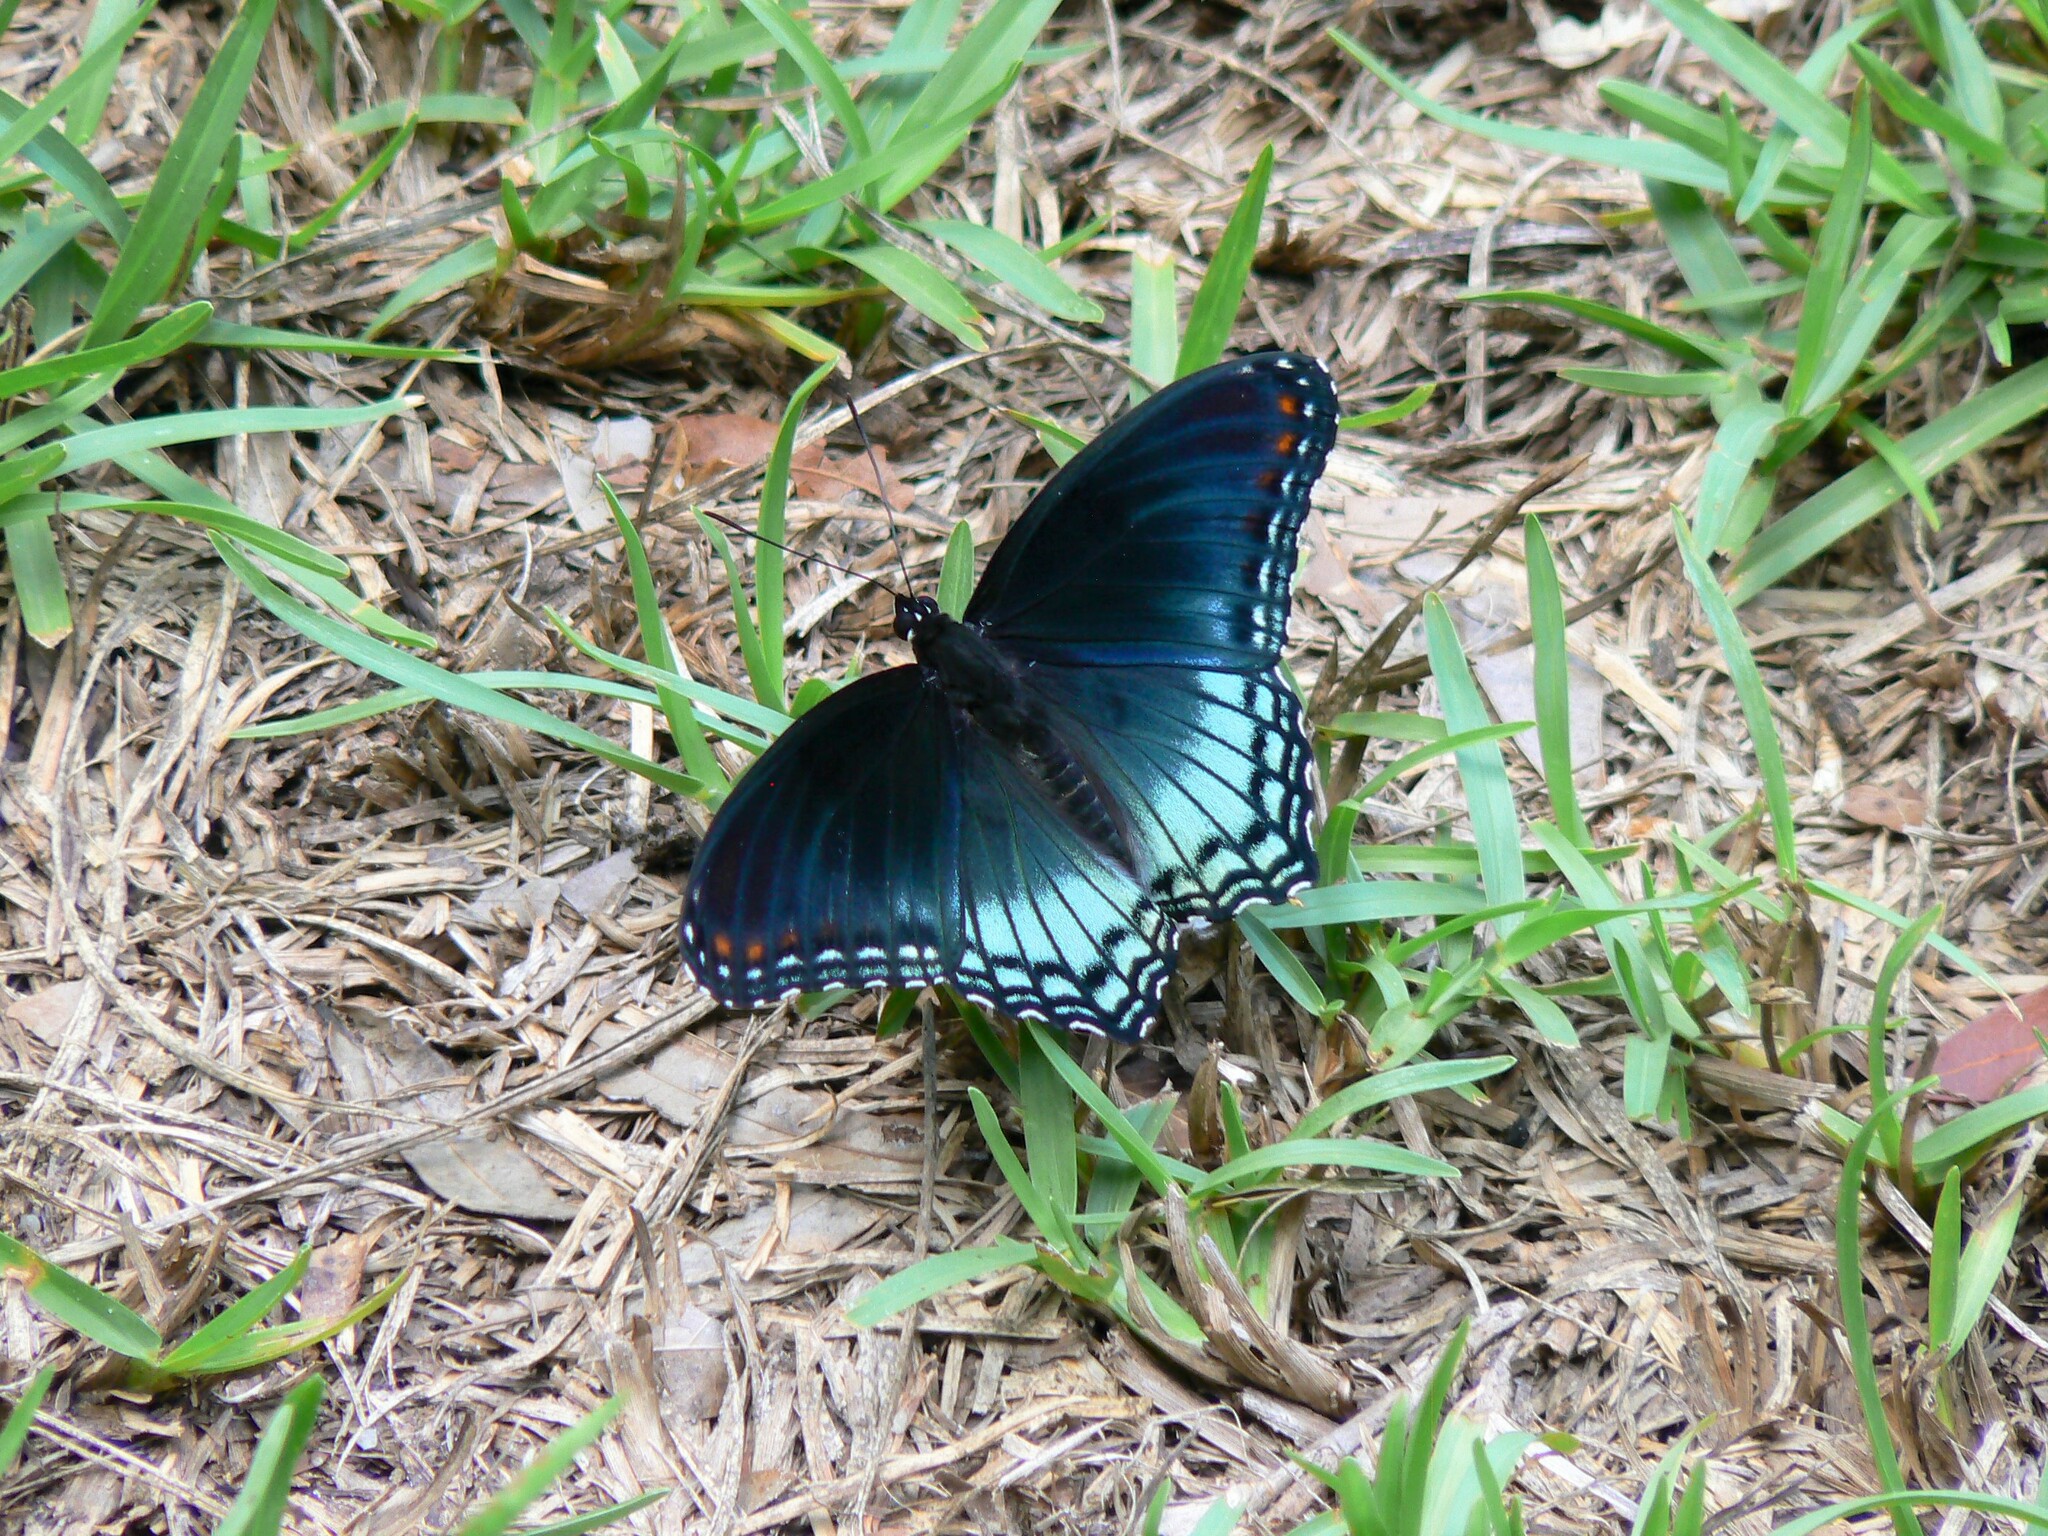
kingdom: Animalia
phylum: Arthropoda
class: Insecta
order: Lepidoptera
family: Nymphalidae
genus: Limenitis
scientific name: Limenitis astyanax
